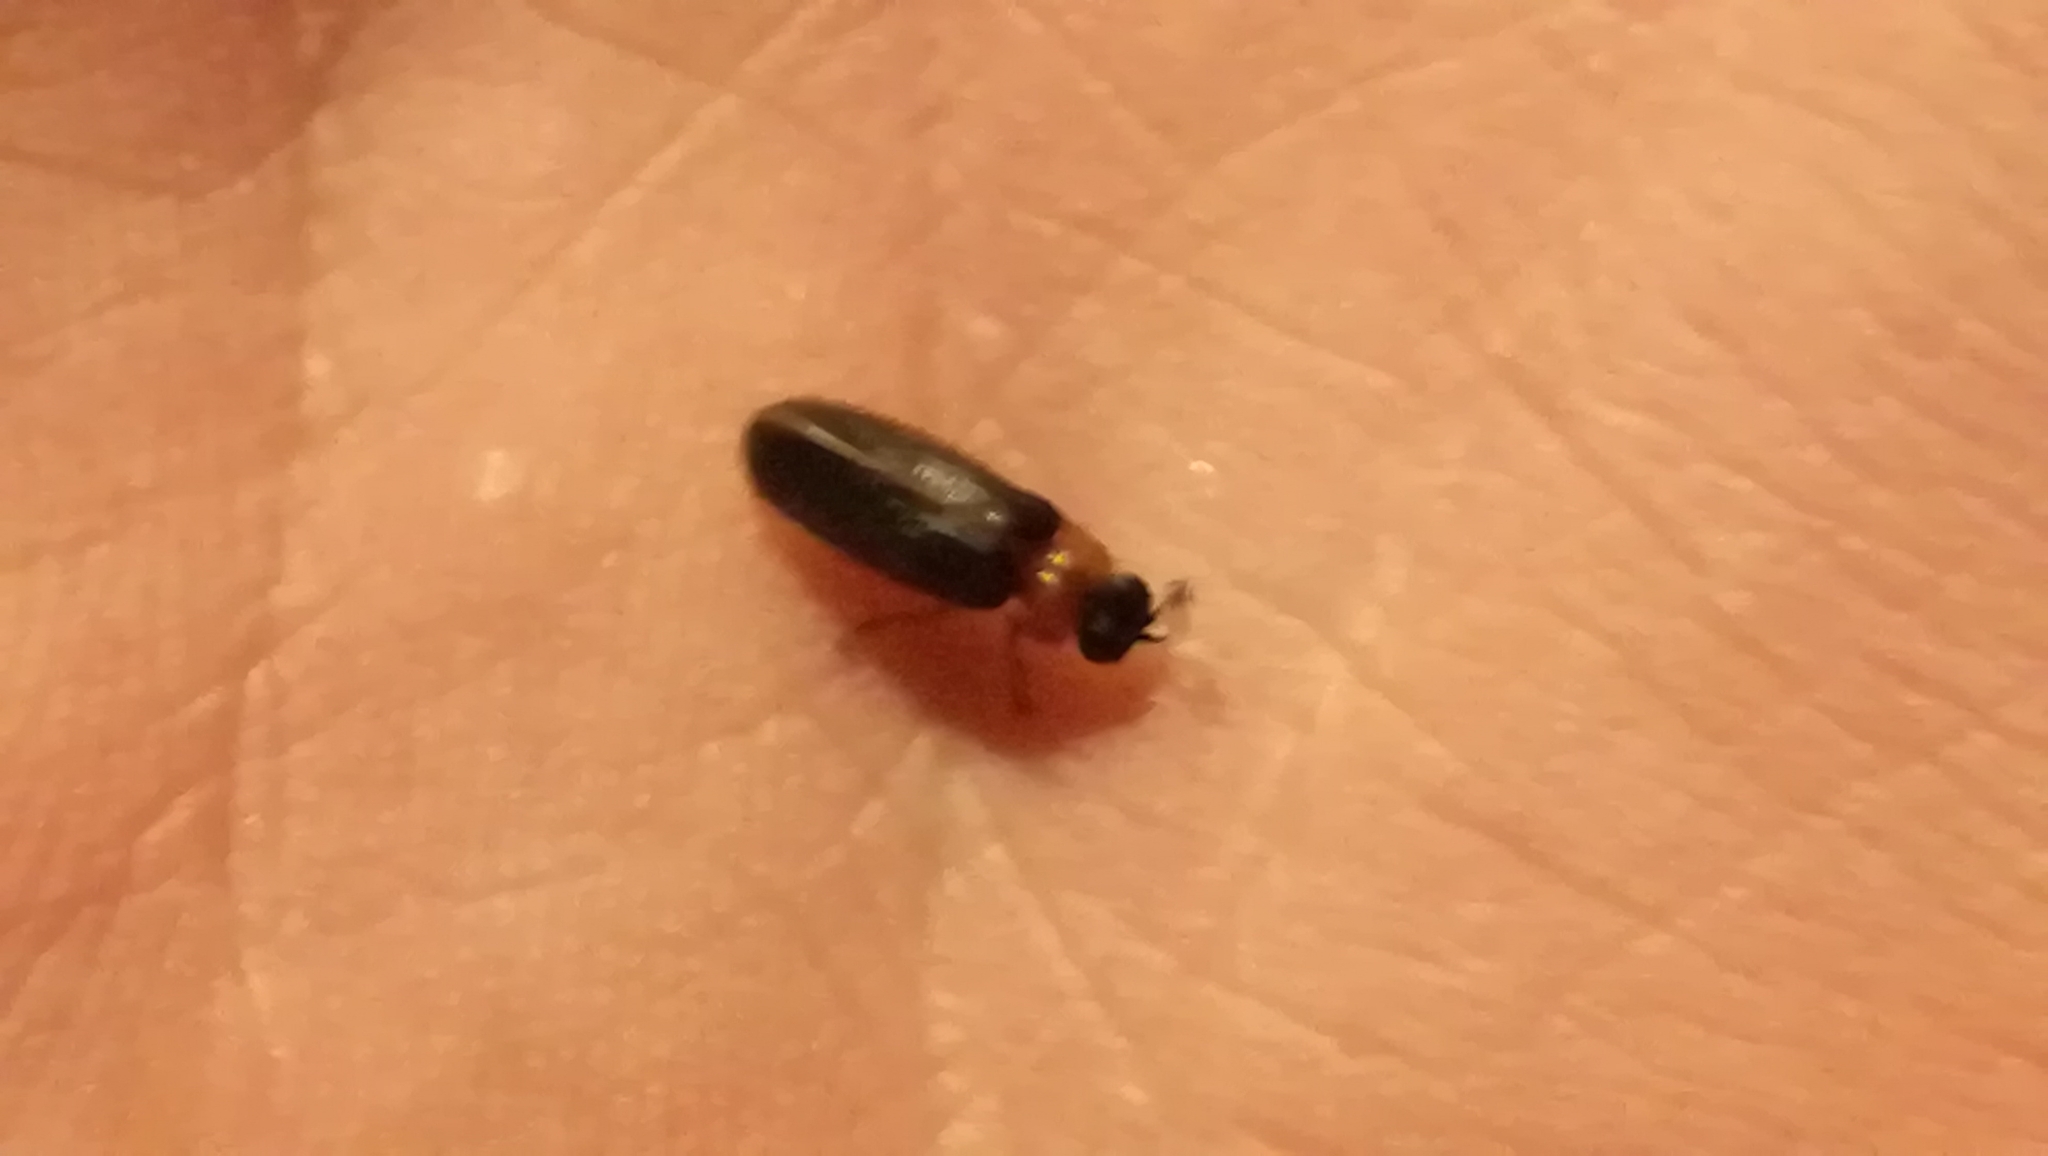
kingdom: Animalia
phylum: Arthropoda
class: Insecta
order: Coleoptera
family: Lampyridae
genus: Luciola
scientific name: Luciola italica
